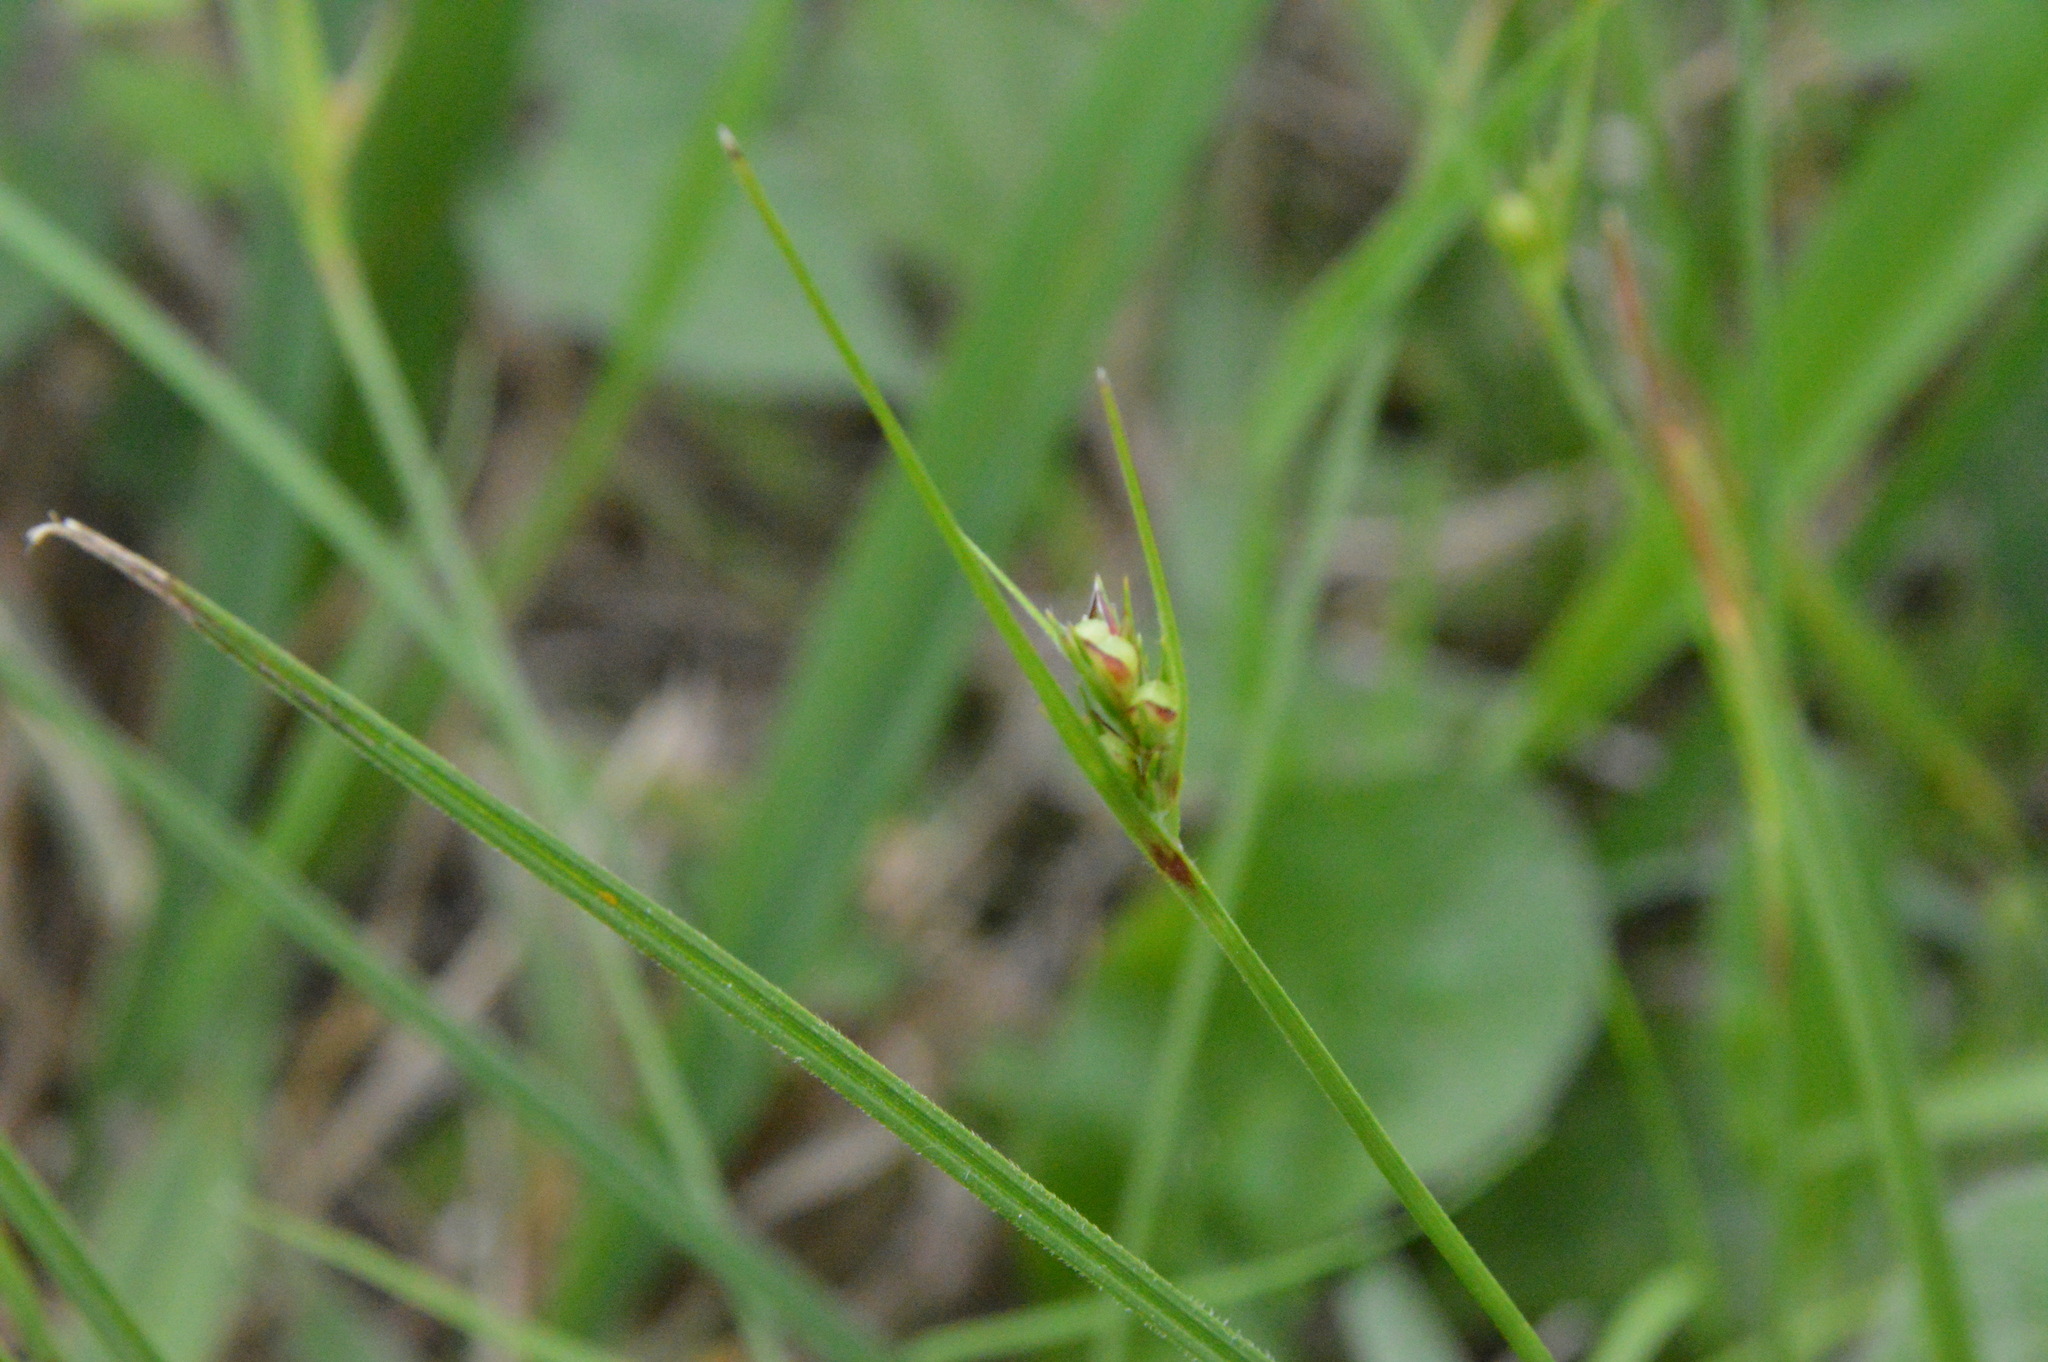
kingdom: Plantae
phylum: Tracheophyta
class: Liliopsida
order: Poales
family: Cyperaceae
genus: Scleria
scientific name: Scleria pauciflora
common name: Few-flowered nutrush
